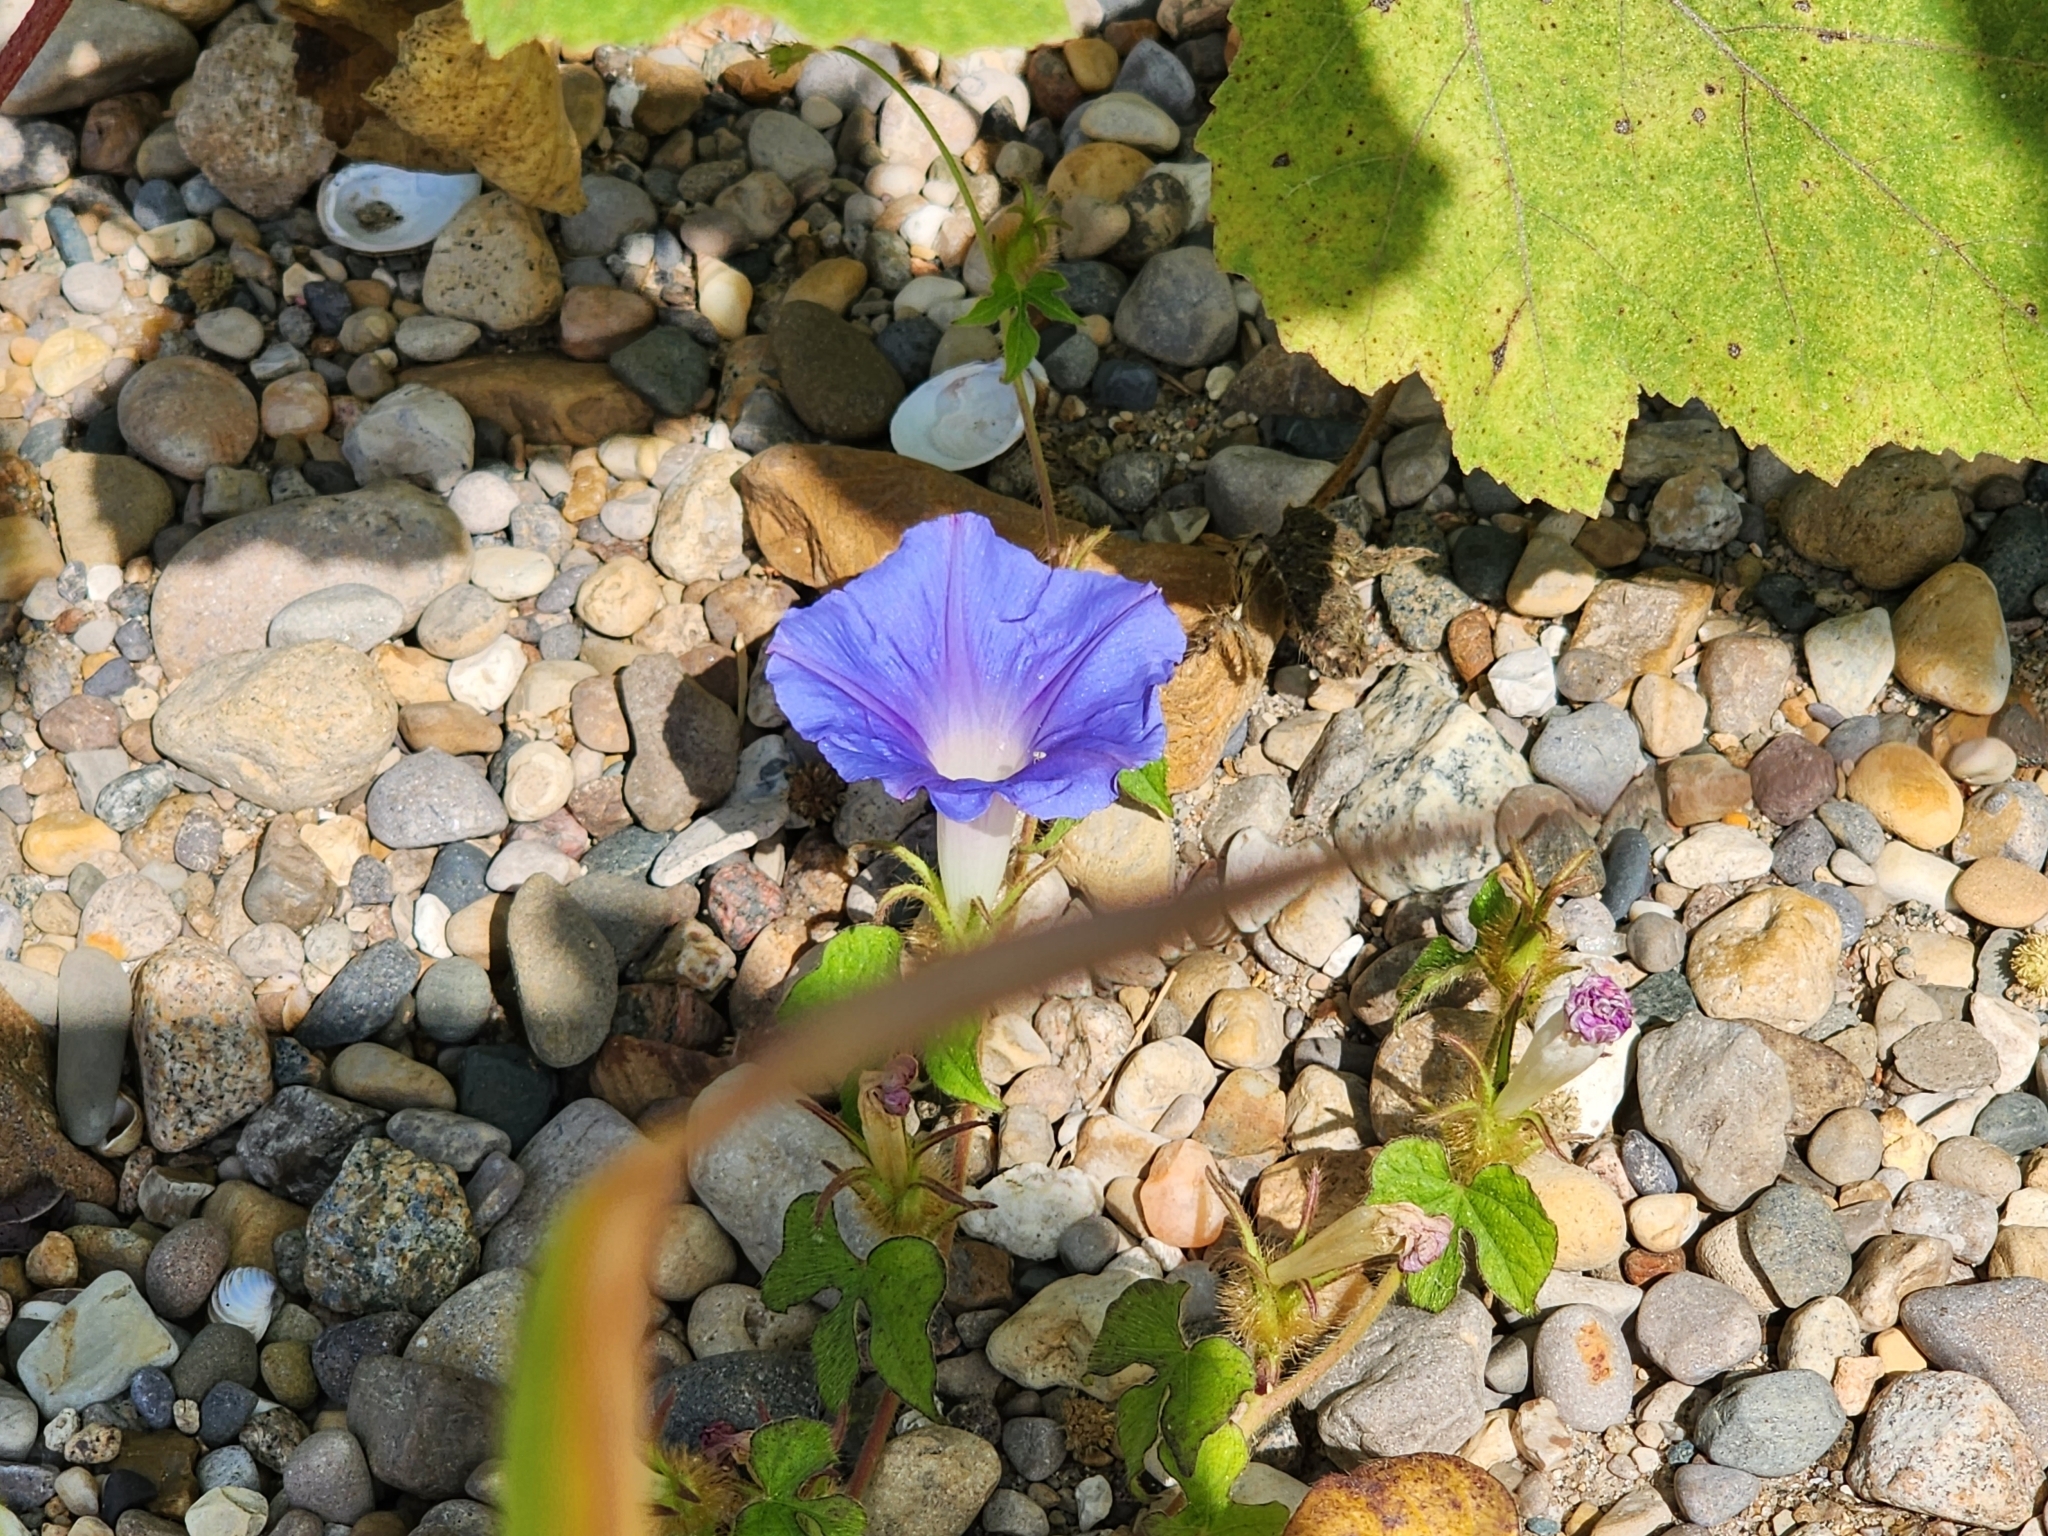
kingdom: Plantae
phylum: Tracheophyta
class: Magnoliopsida
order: Solanales
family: Convolvulaceae
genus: Ipomoea
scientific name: Ipomoea hederacea
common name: Ivy-leaved morning-glory
